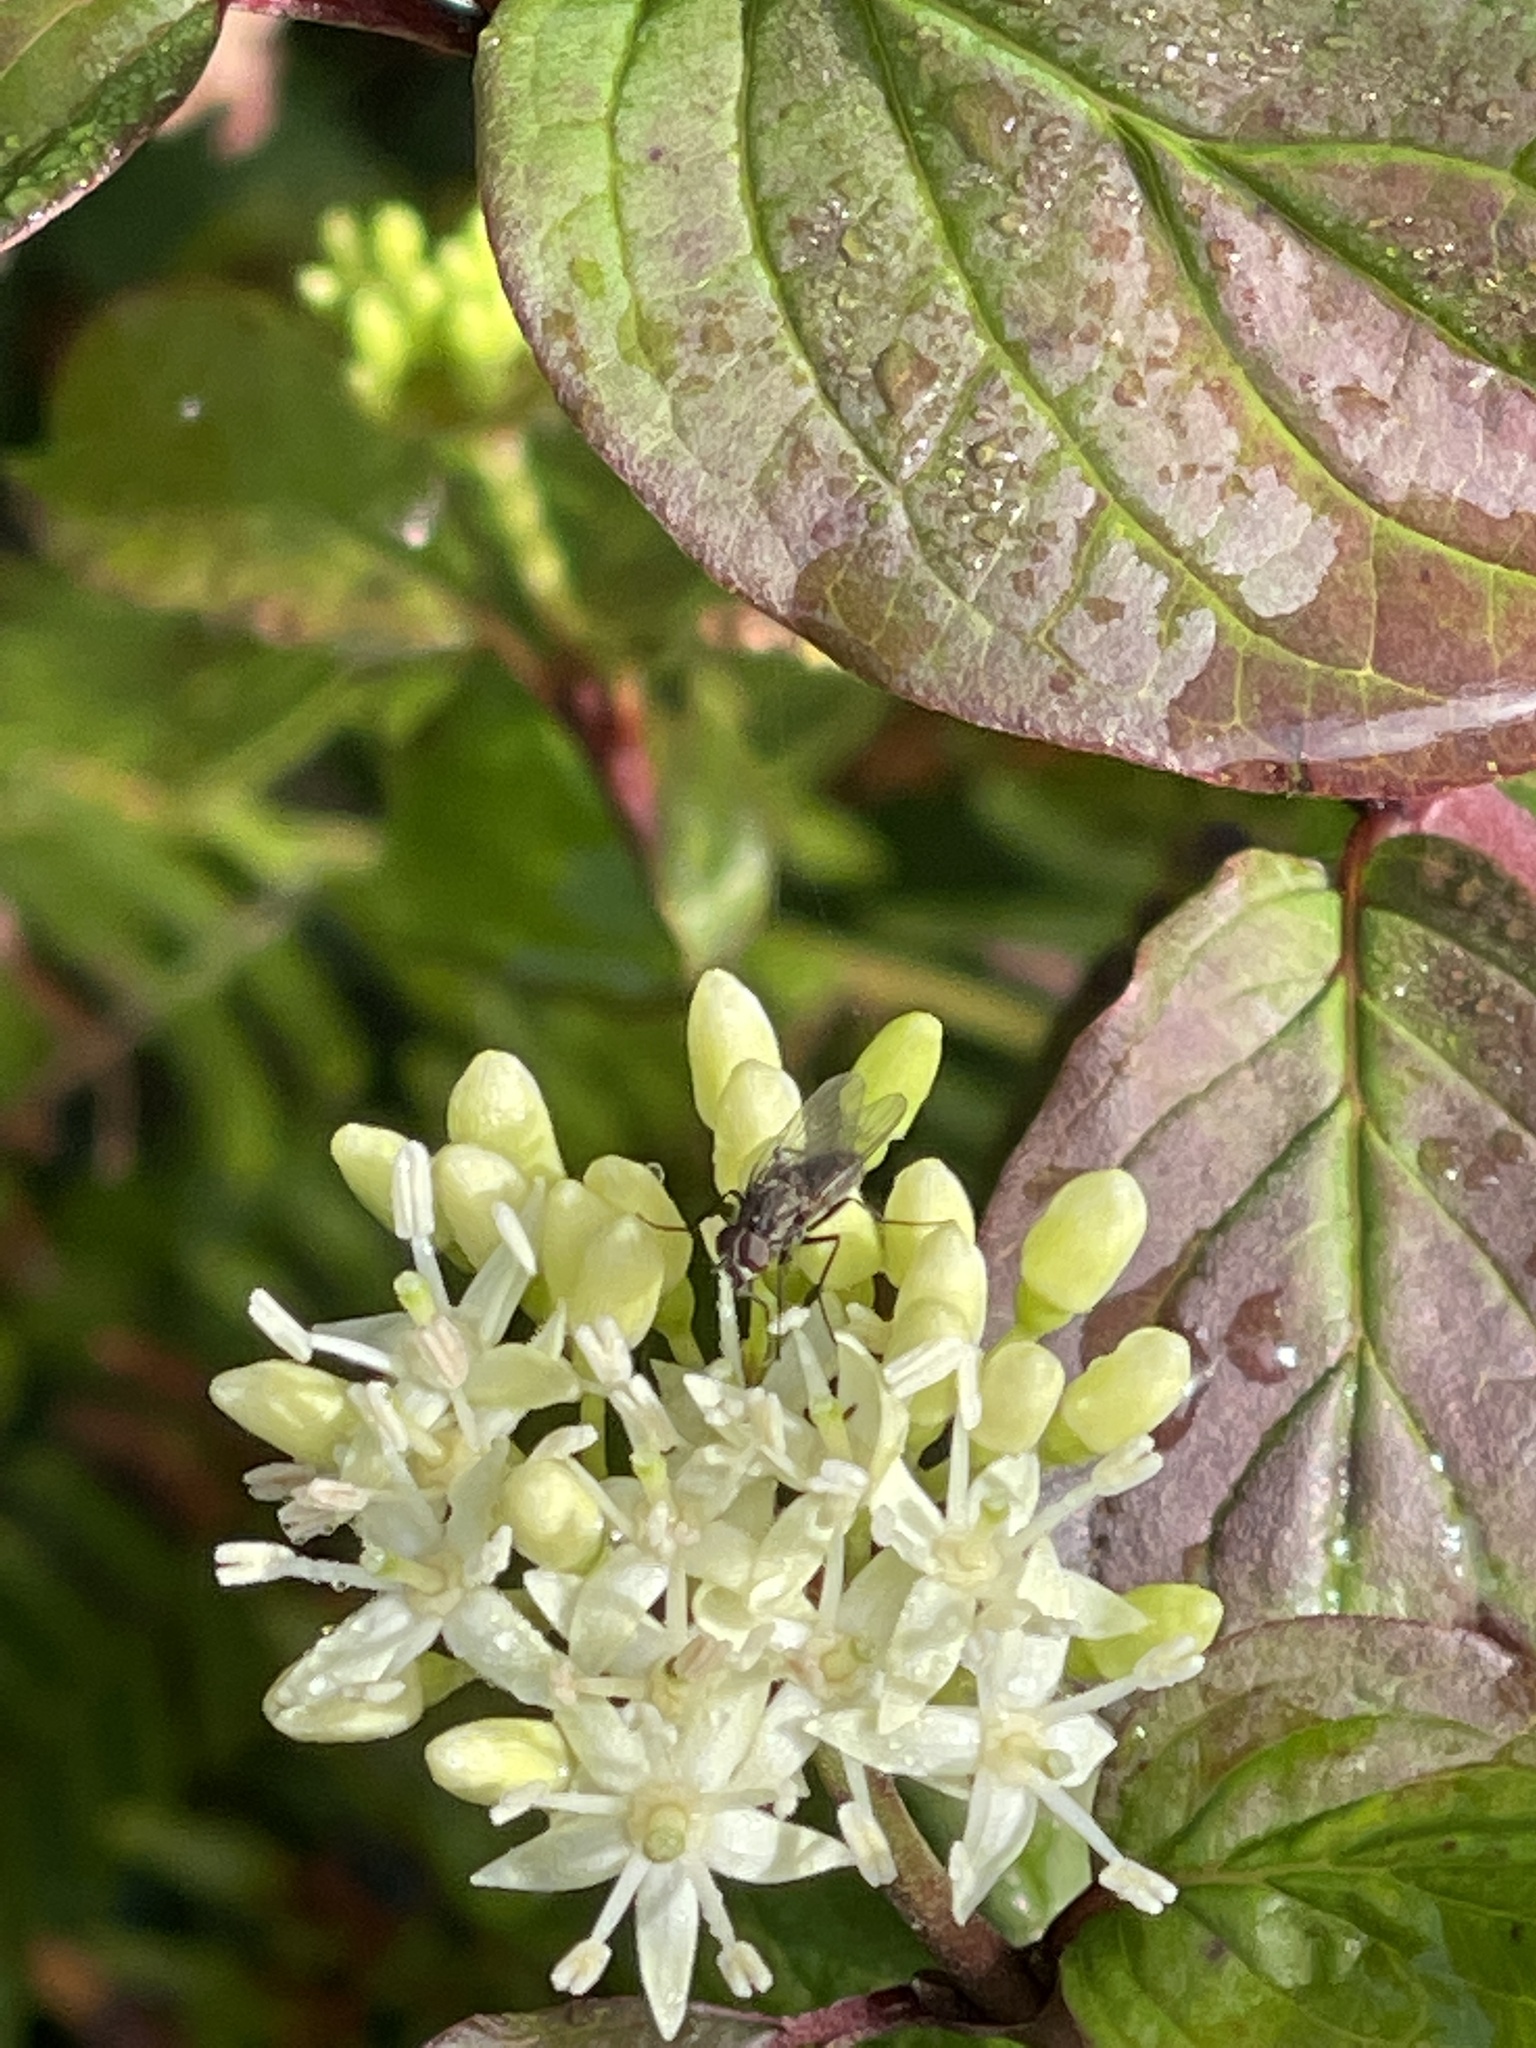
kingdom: Plantae
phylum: Tracheophyta
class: Magnoliopsida
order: Cornales
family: Cornaceae
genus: Cornus
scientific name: Cornus sanguinea
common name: Dogwood
